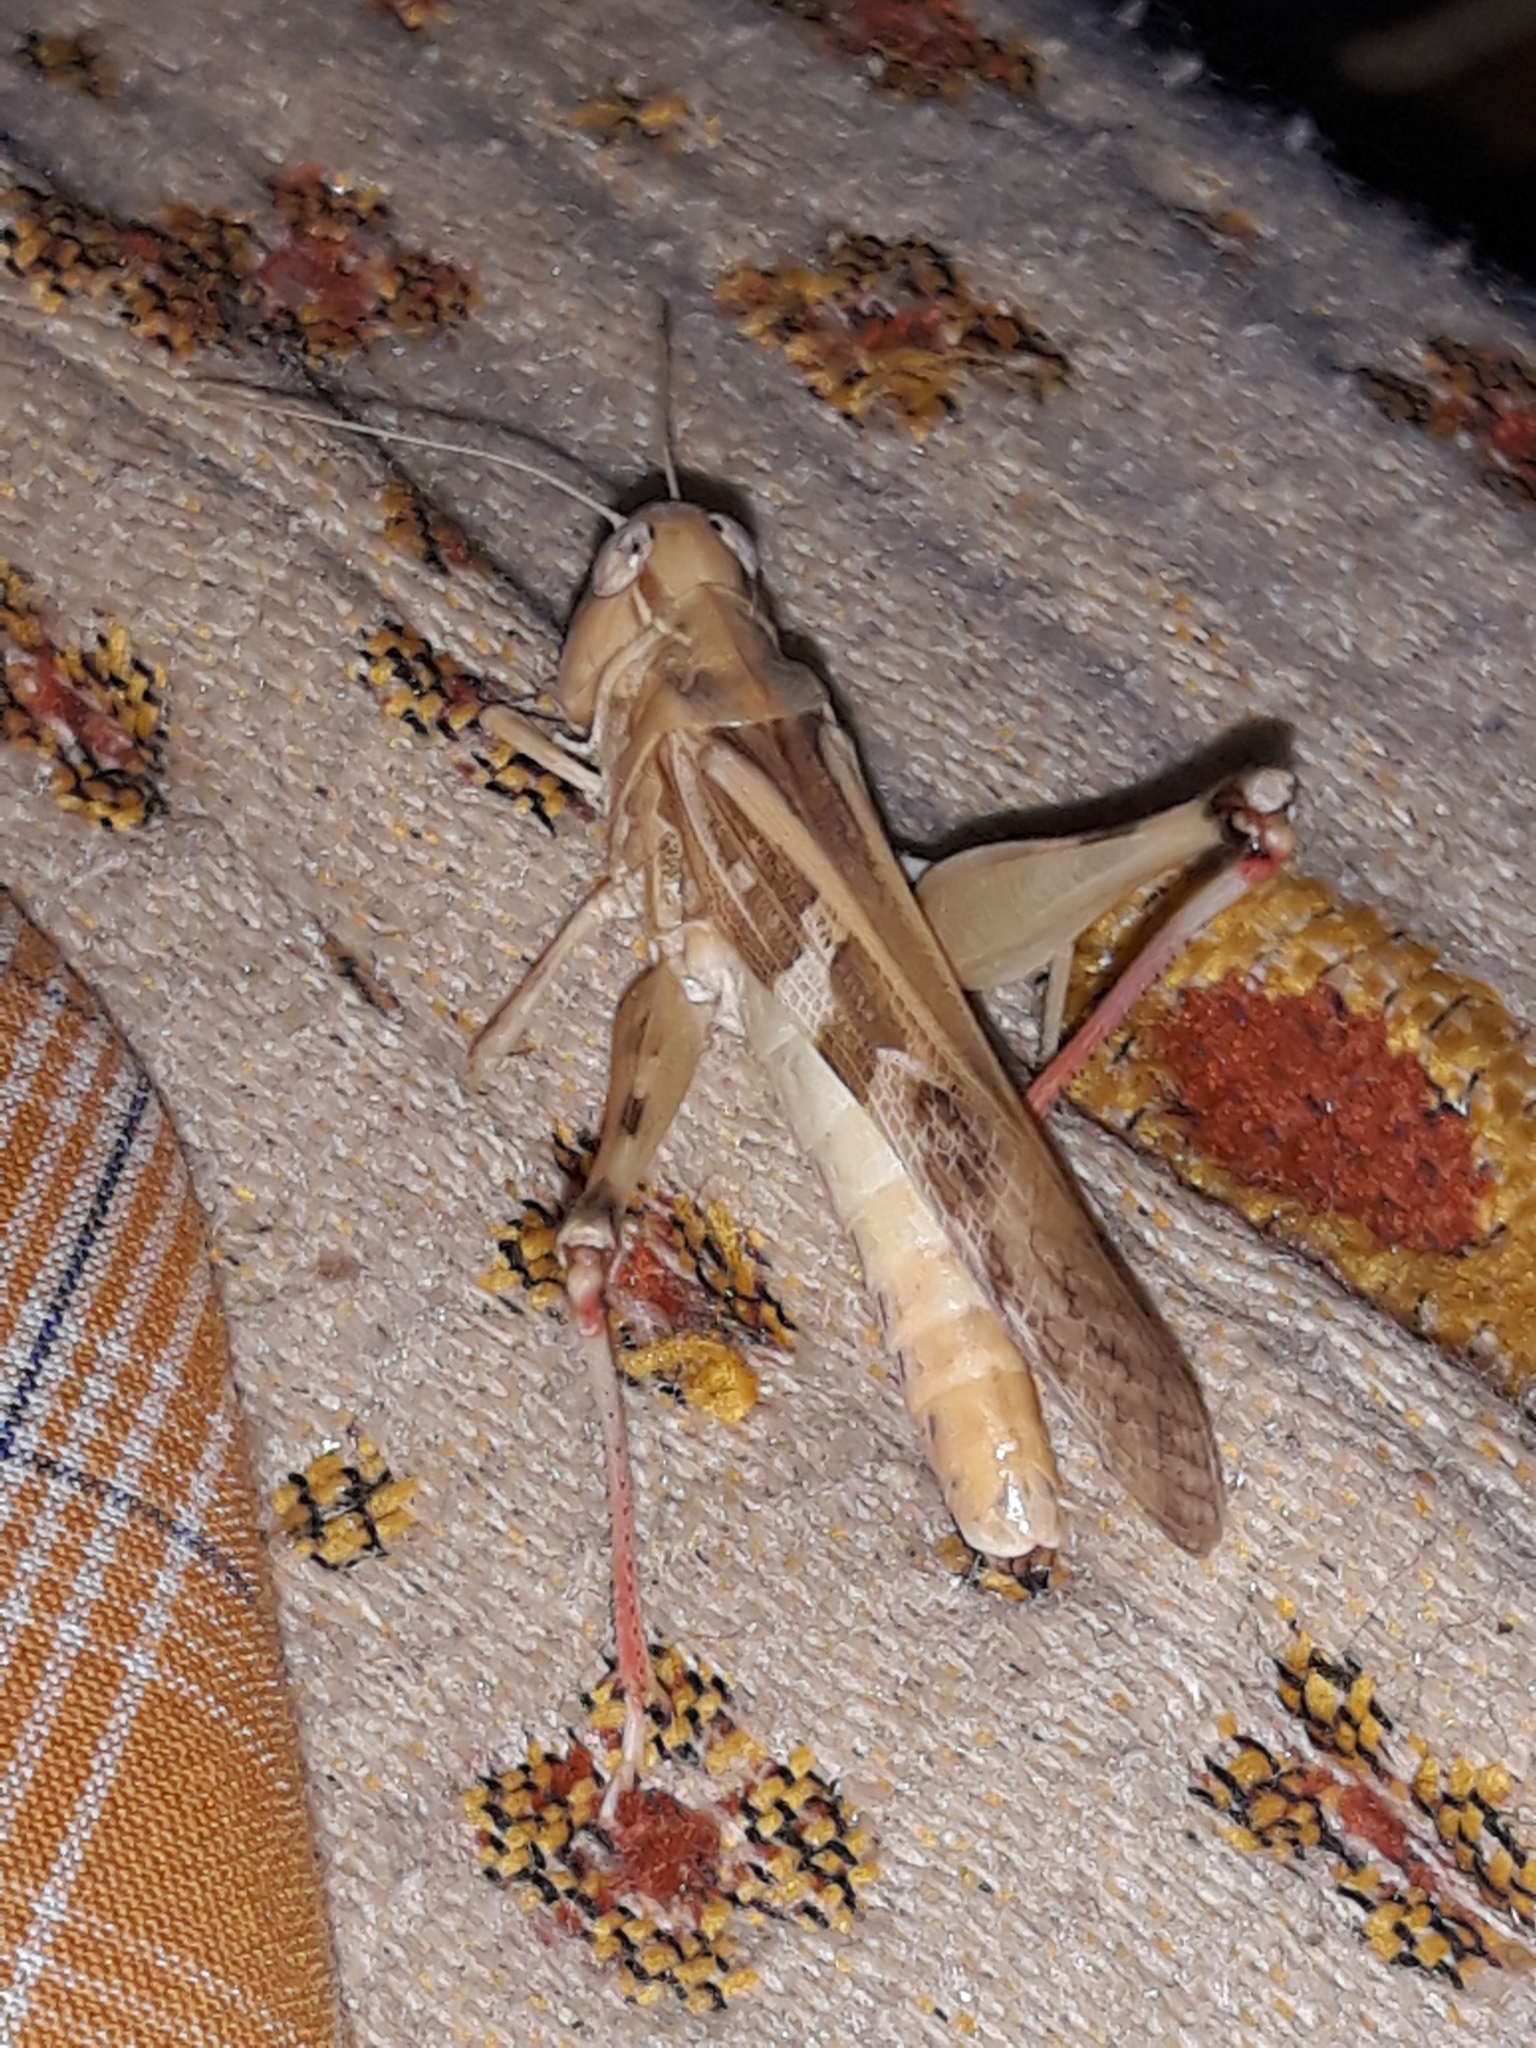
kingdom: Animalia
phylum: Arthropoda
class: Insecta
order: Orthoptera
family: Acrididae
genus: Oedaleus
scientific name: Oedaleus senegalensis
